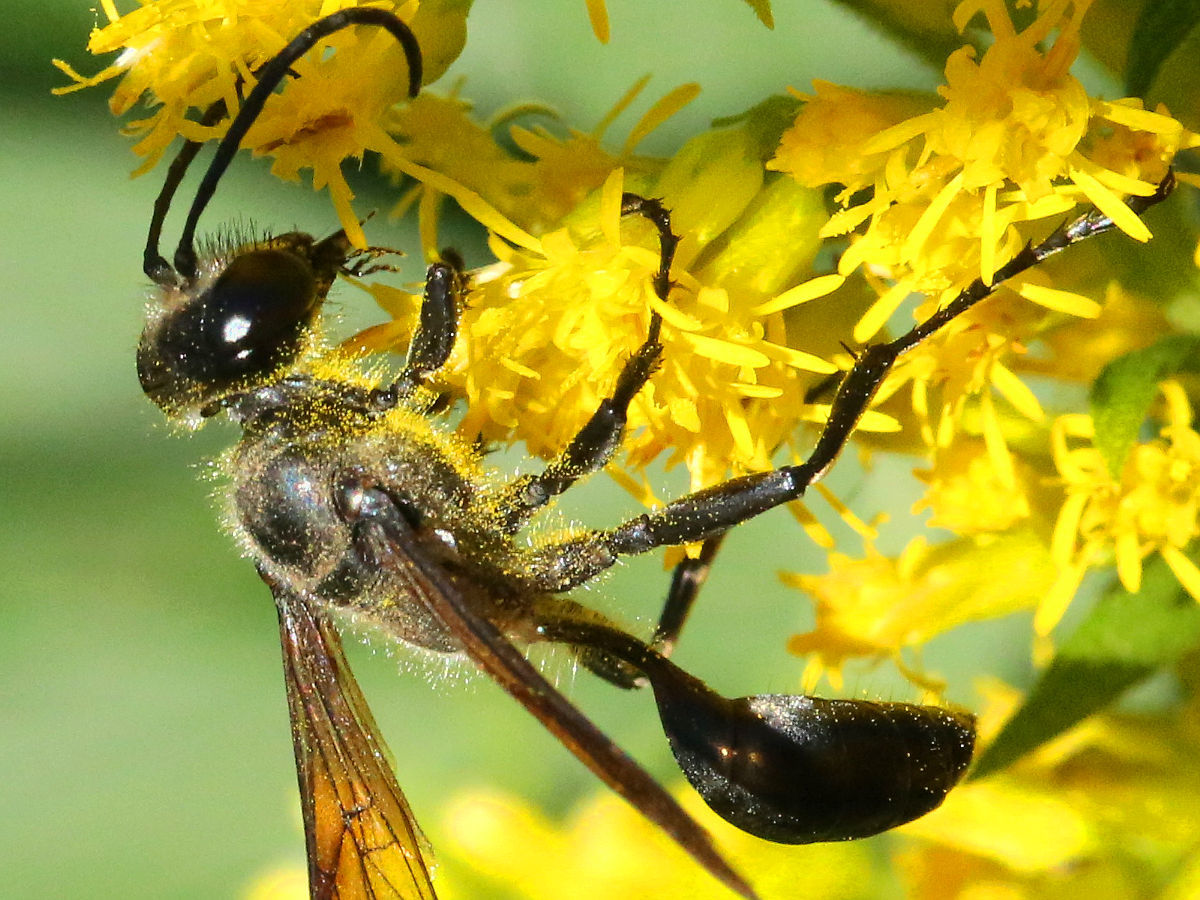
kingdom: Animalia
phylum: Arthropoda
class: Insecta
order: Hymenoptera
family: Sphecidae
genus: Isodontia
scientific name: Isodontia mexicana
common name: Mud dauber
